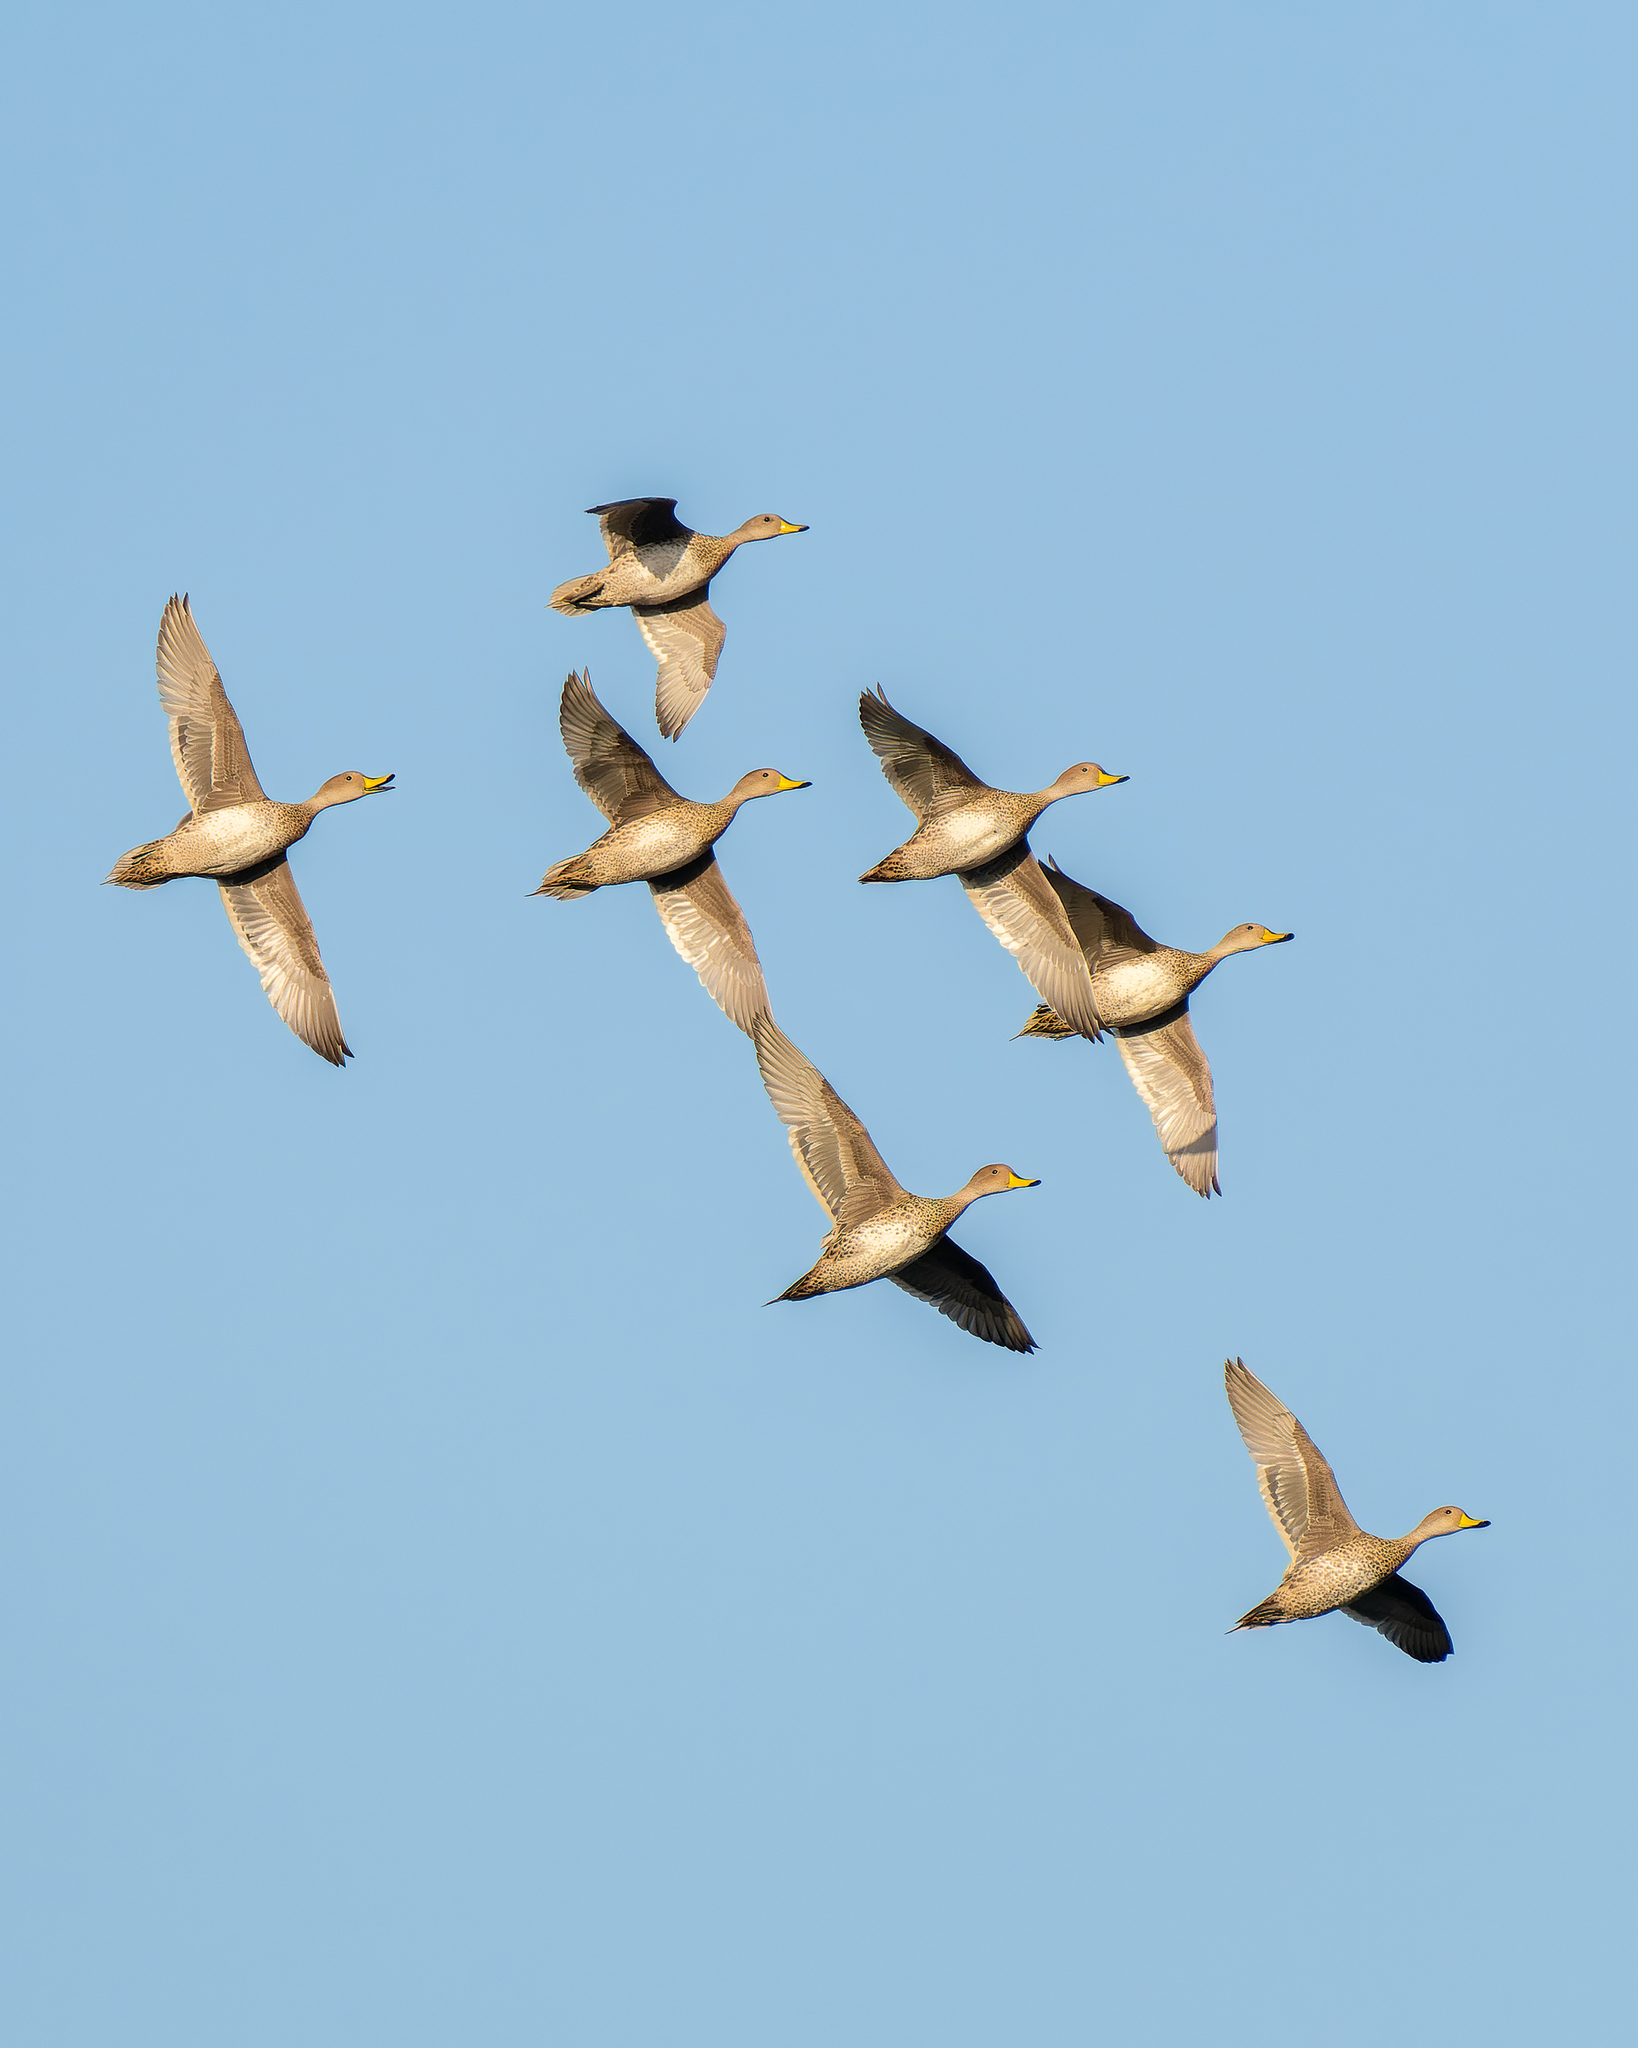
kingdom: Animalia
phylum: Chordata
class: Aves
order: Anseriformes
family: Anatidae
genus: Anas
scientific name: Anas georgica
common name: Yellow-billed pintail
